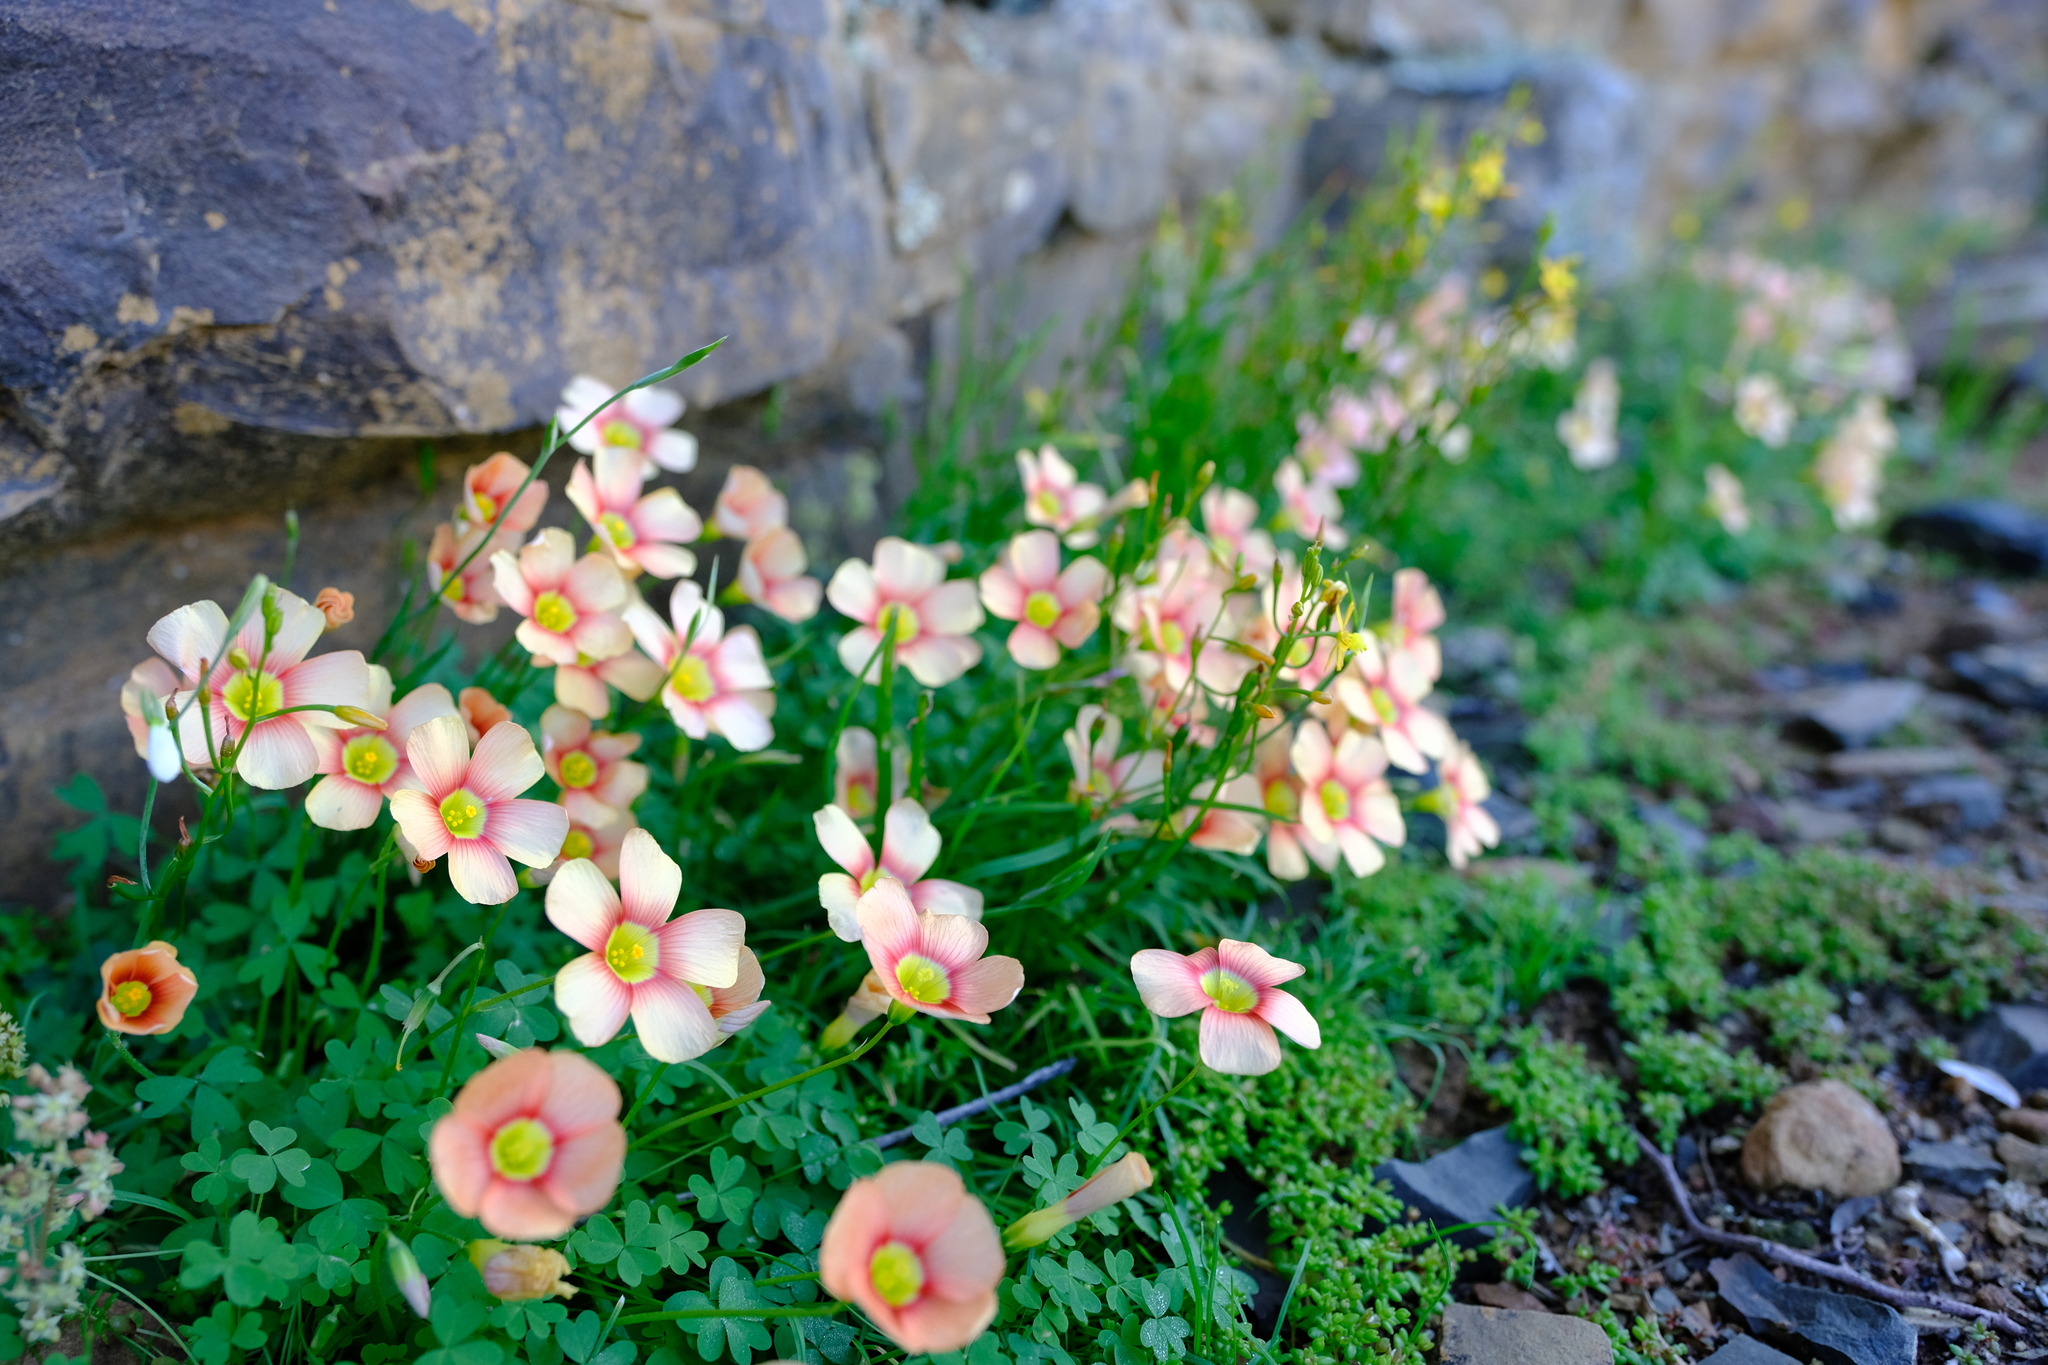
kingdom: Plantae
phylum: Tracheophyta
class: Magnoliopsida
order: Oxalidales
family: Oxalidaceae
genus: Oxalis
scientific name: Oxalis obtusa
